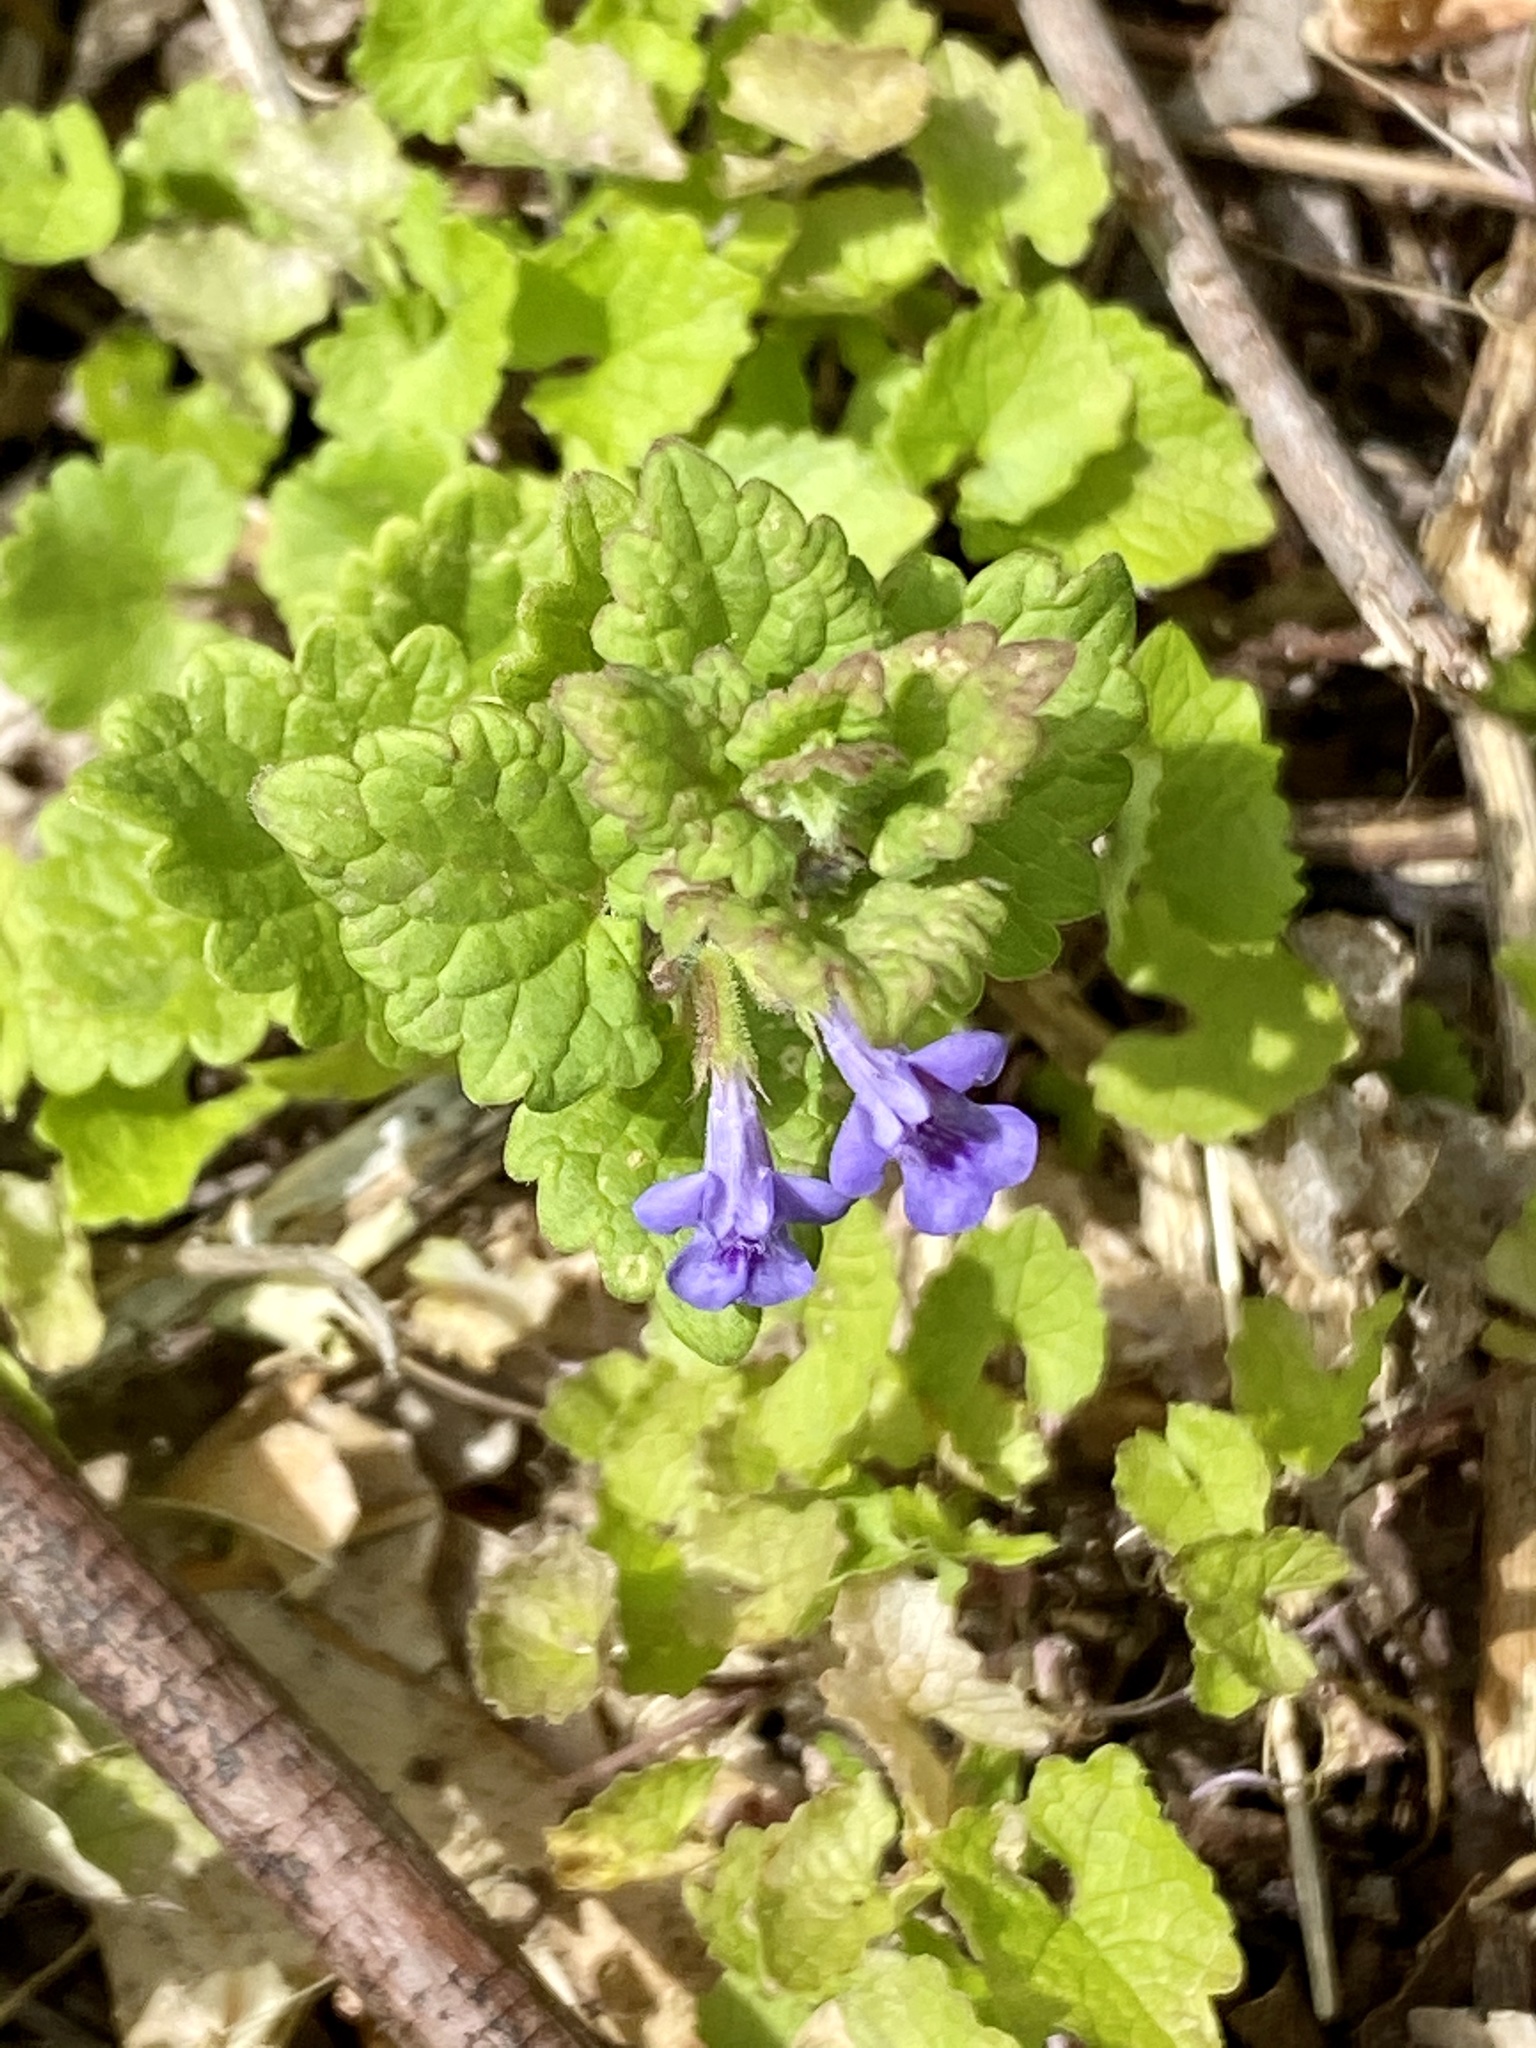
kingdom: Plantae
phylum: Tracheophyta
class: Magnoliopsida
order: Lamiales
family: Lamiaceae
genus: Glechoma
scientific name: Glechoma hederacea
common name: Ground ivy
